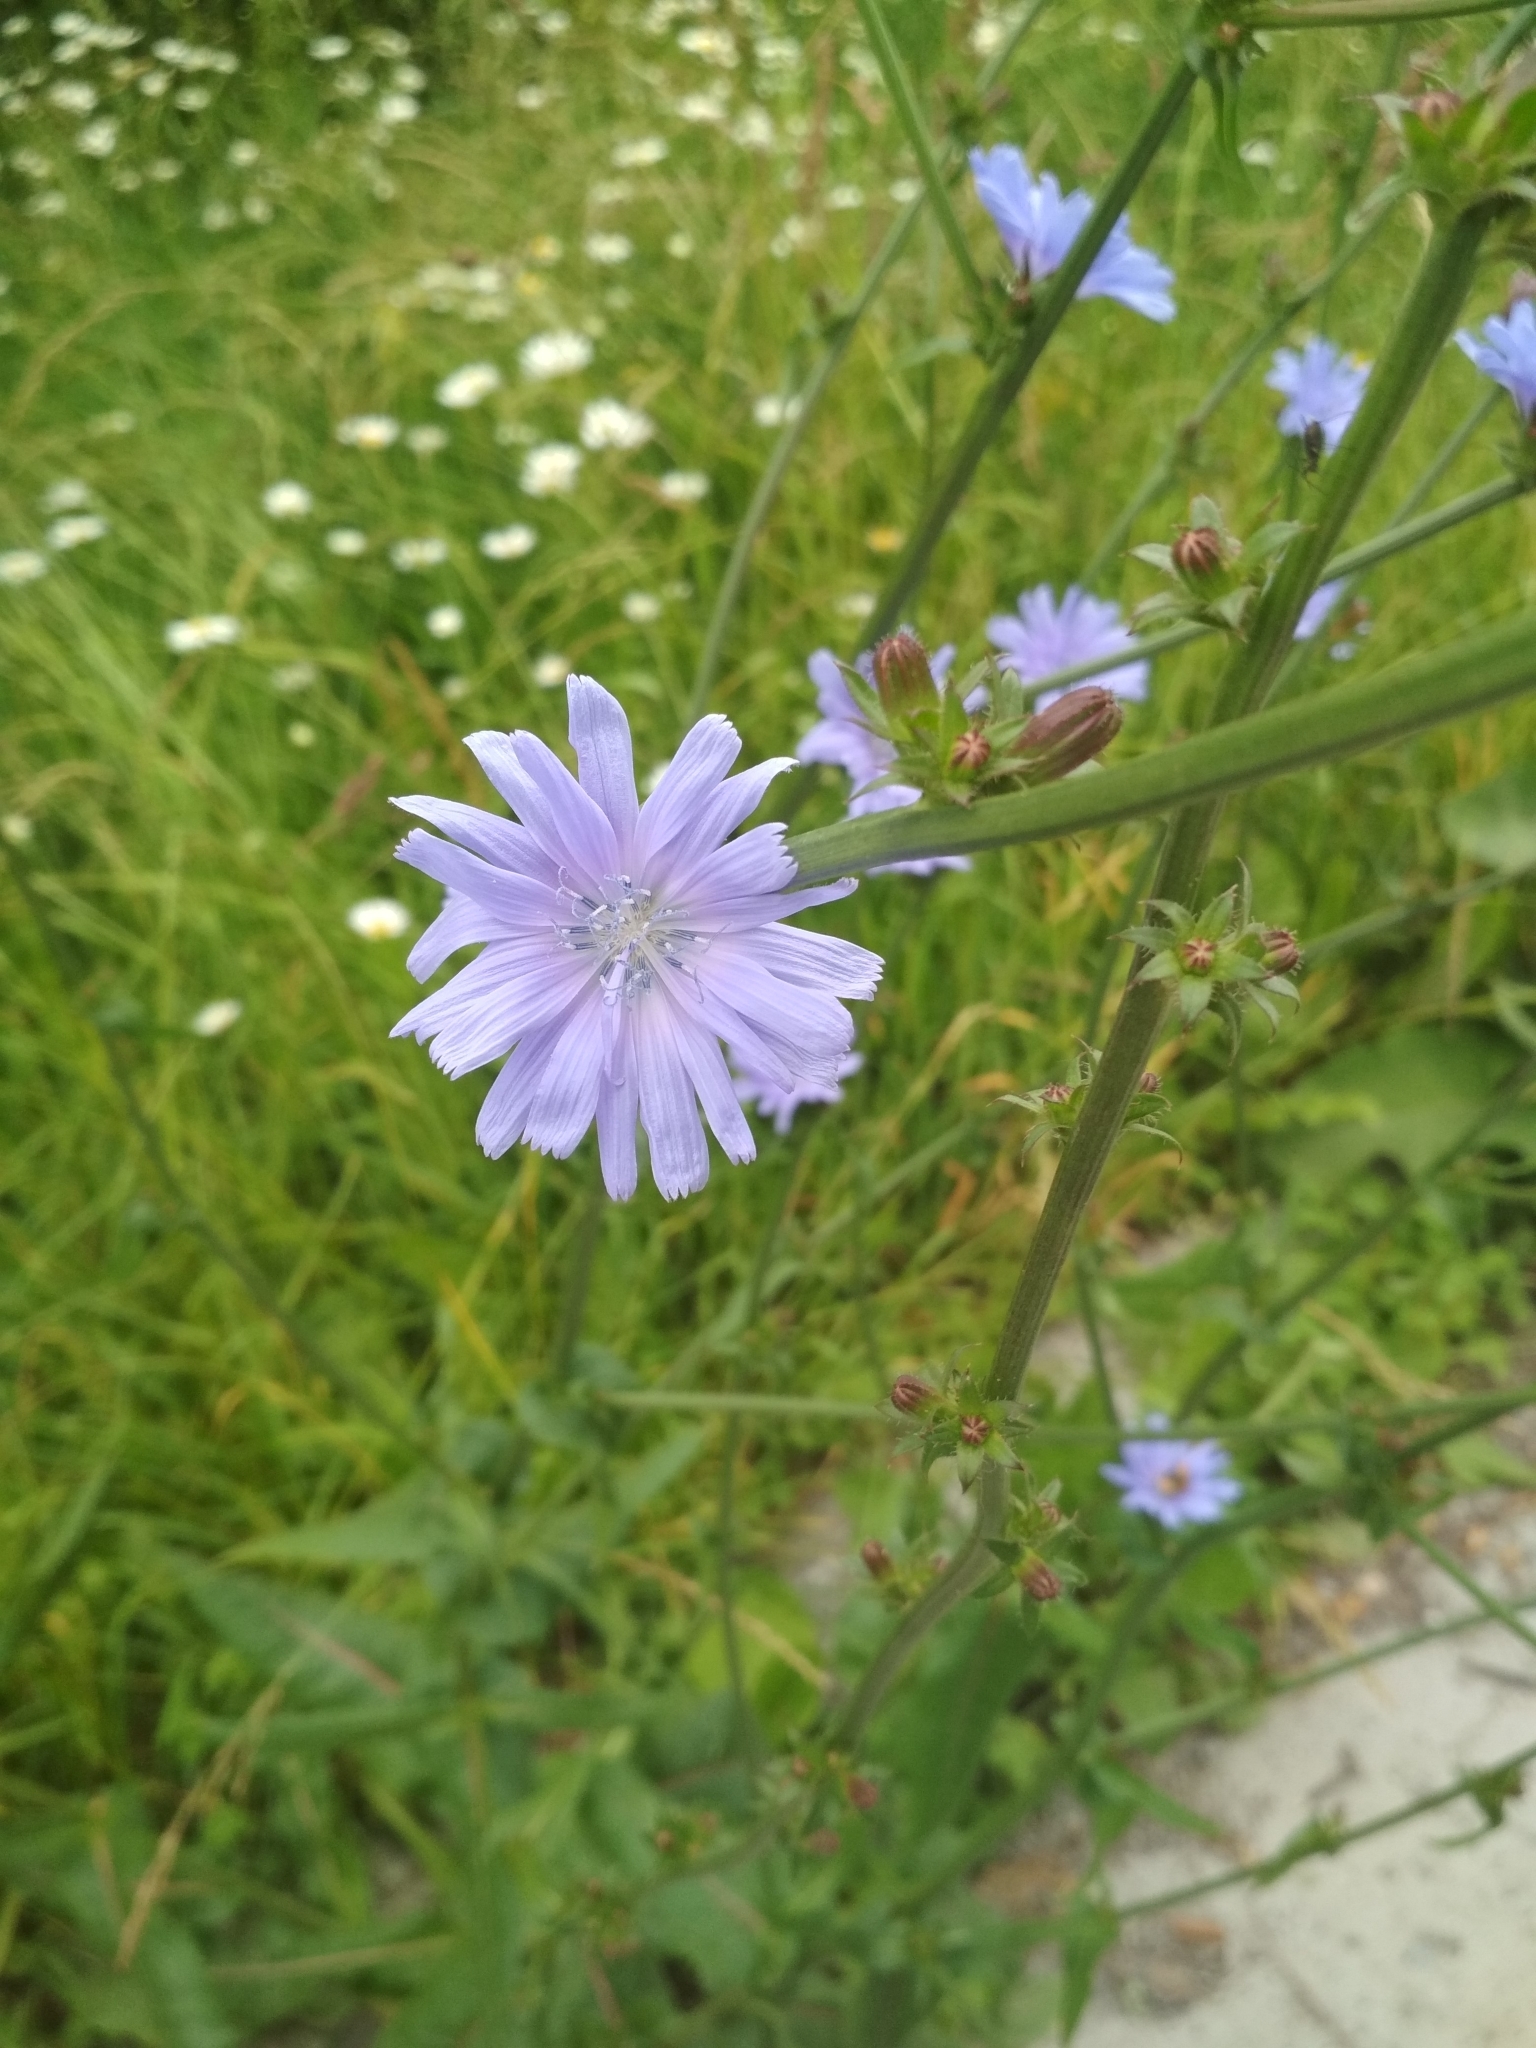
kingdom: Plantae
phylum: Tracheophyta
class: Magnoliopsida
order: Asterales
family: Asteraceae
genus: Cichorium
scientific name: Cichorium intybus
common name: Chicory
